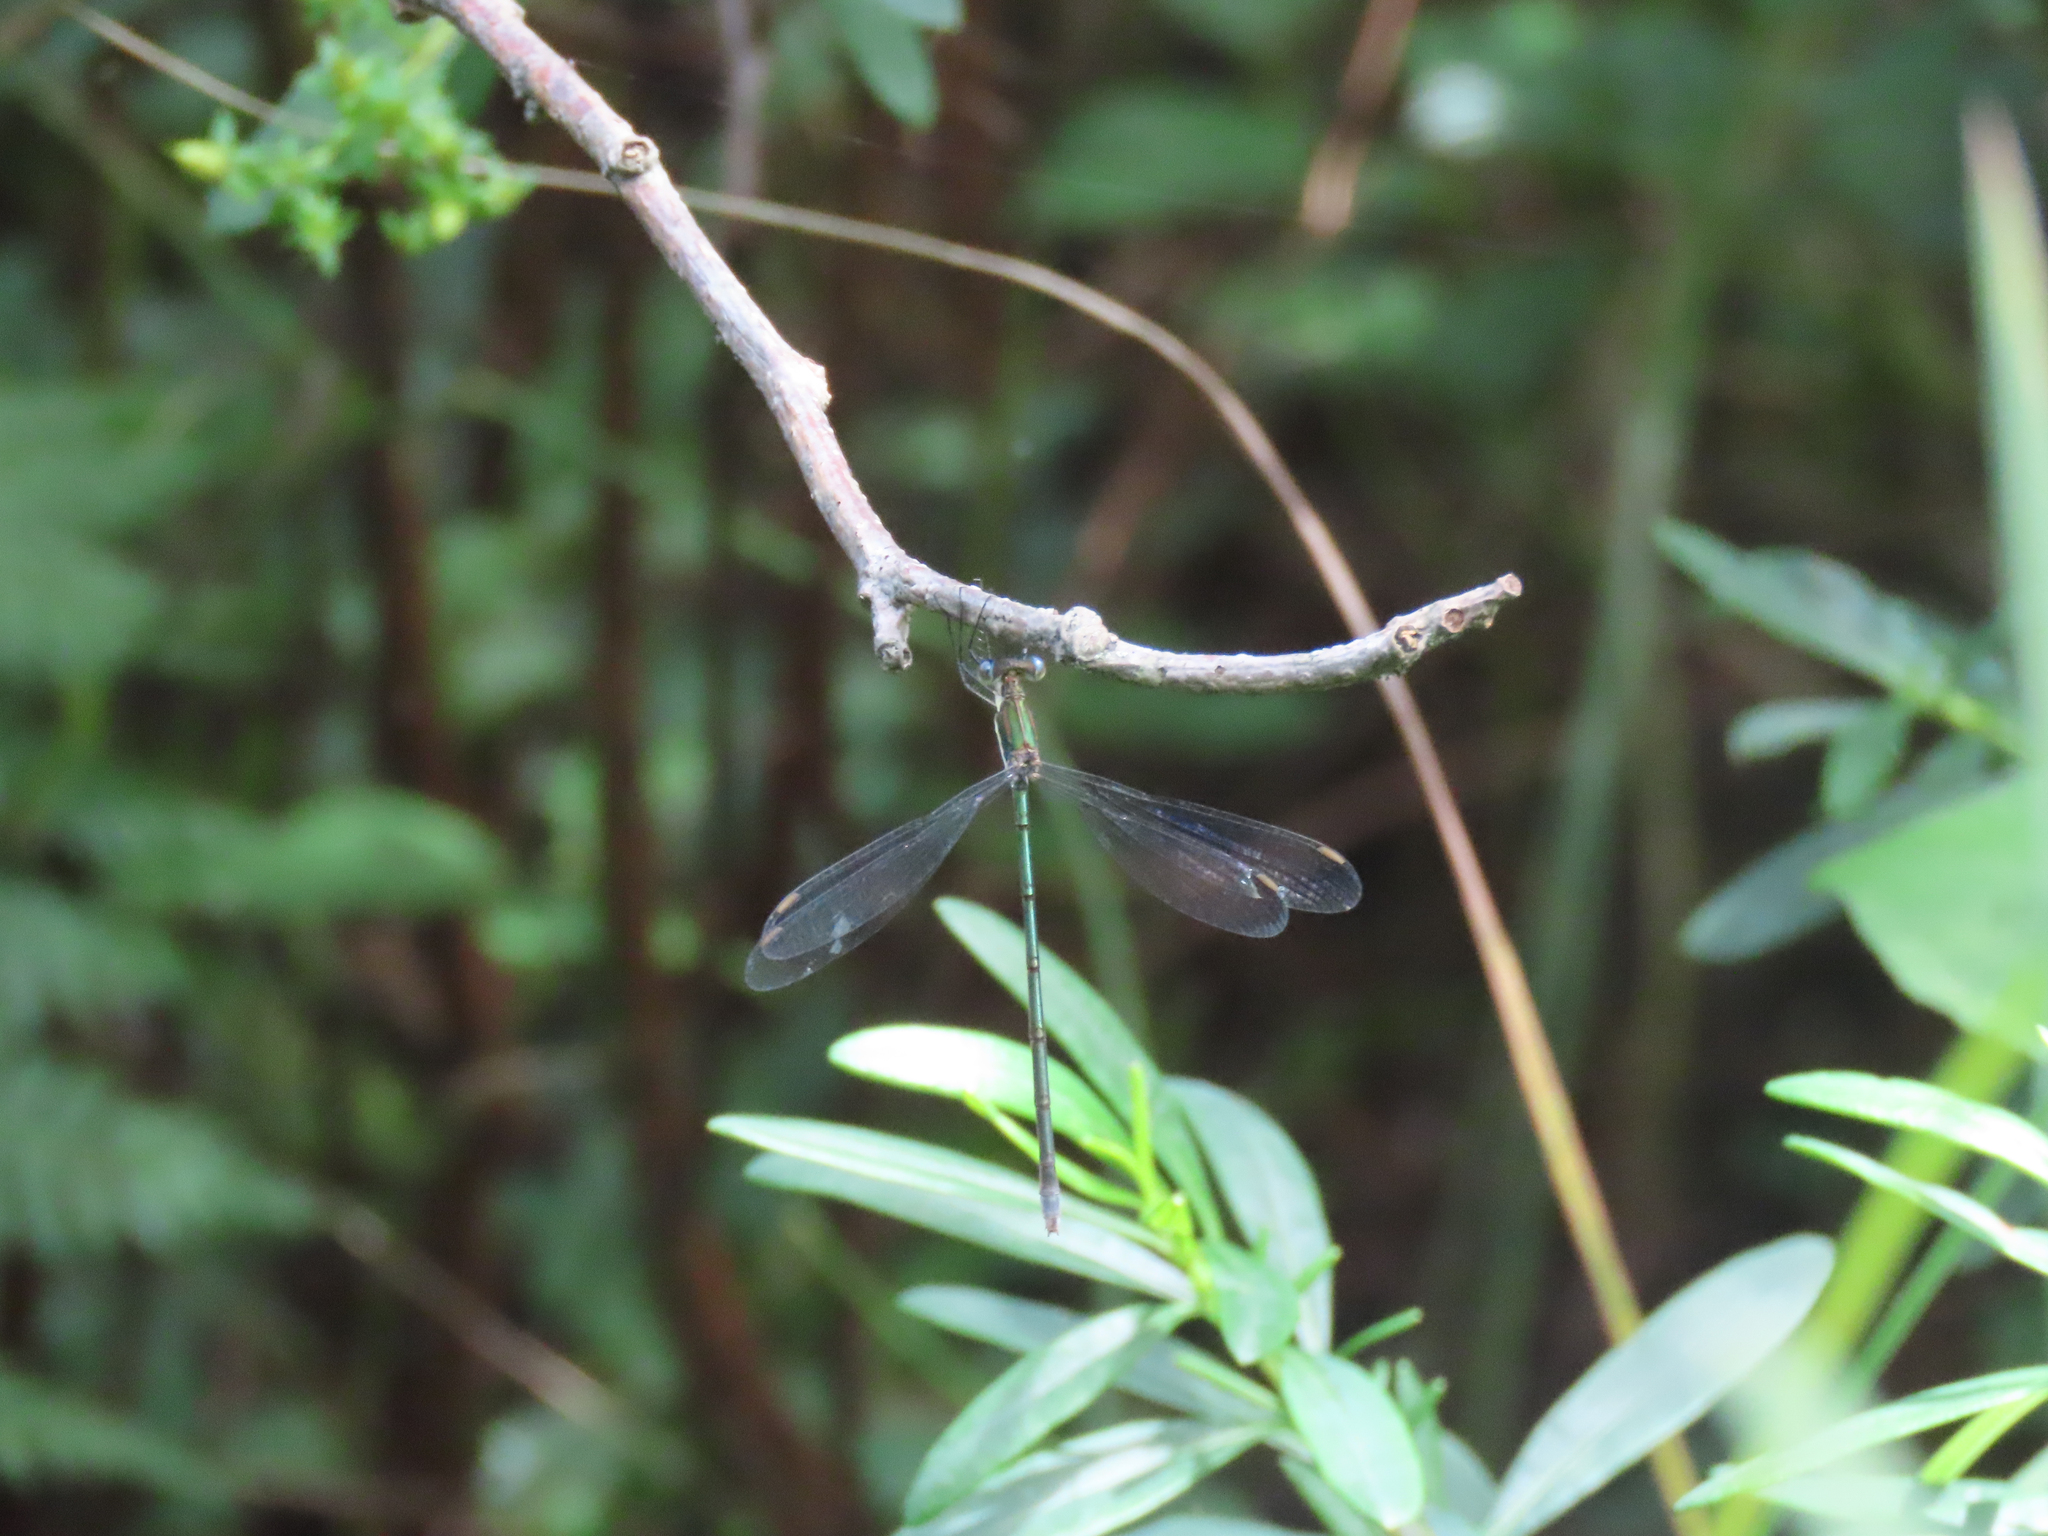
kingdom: Animalia
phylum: Arthropoda
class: Insecta
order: Odonata
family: Lestidae
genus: Lestes
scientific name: Lestes vigilax
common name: Swamp spreadwing
